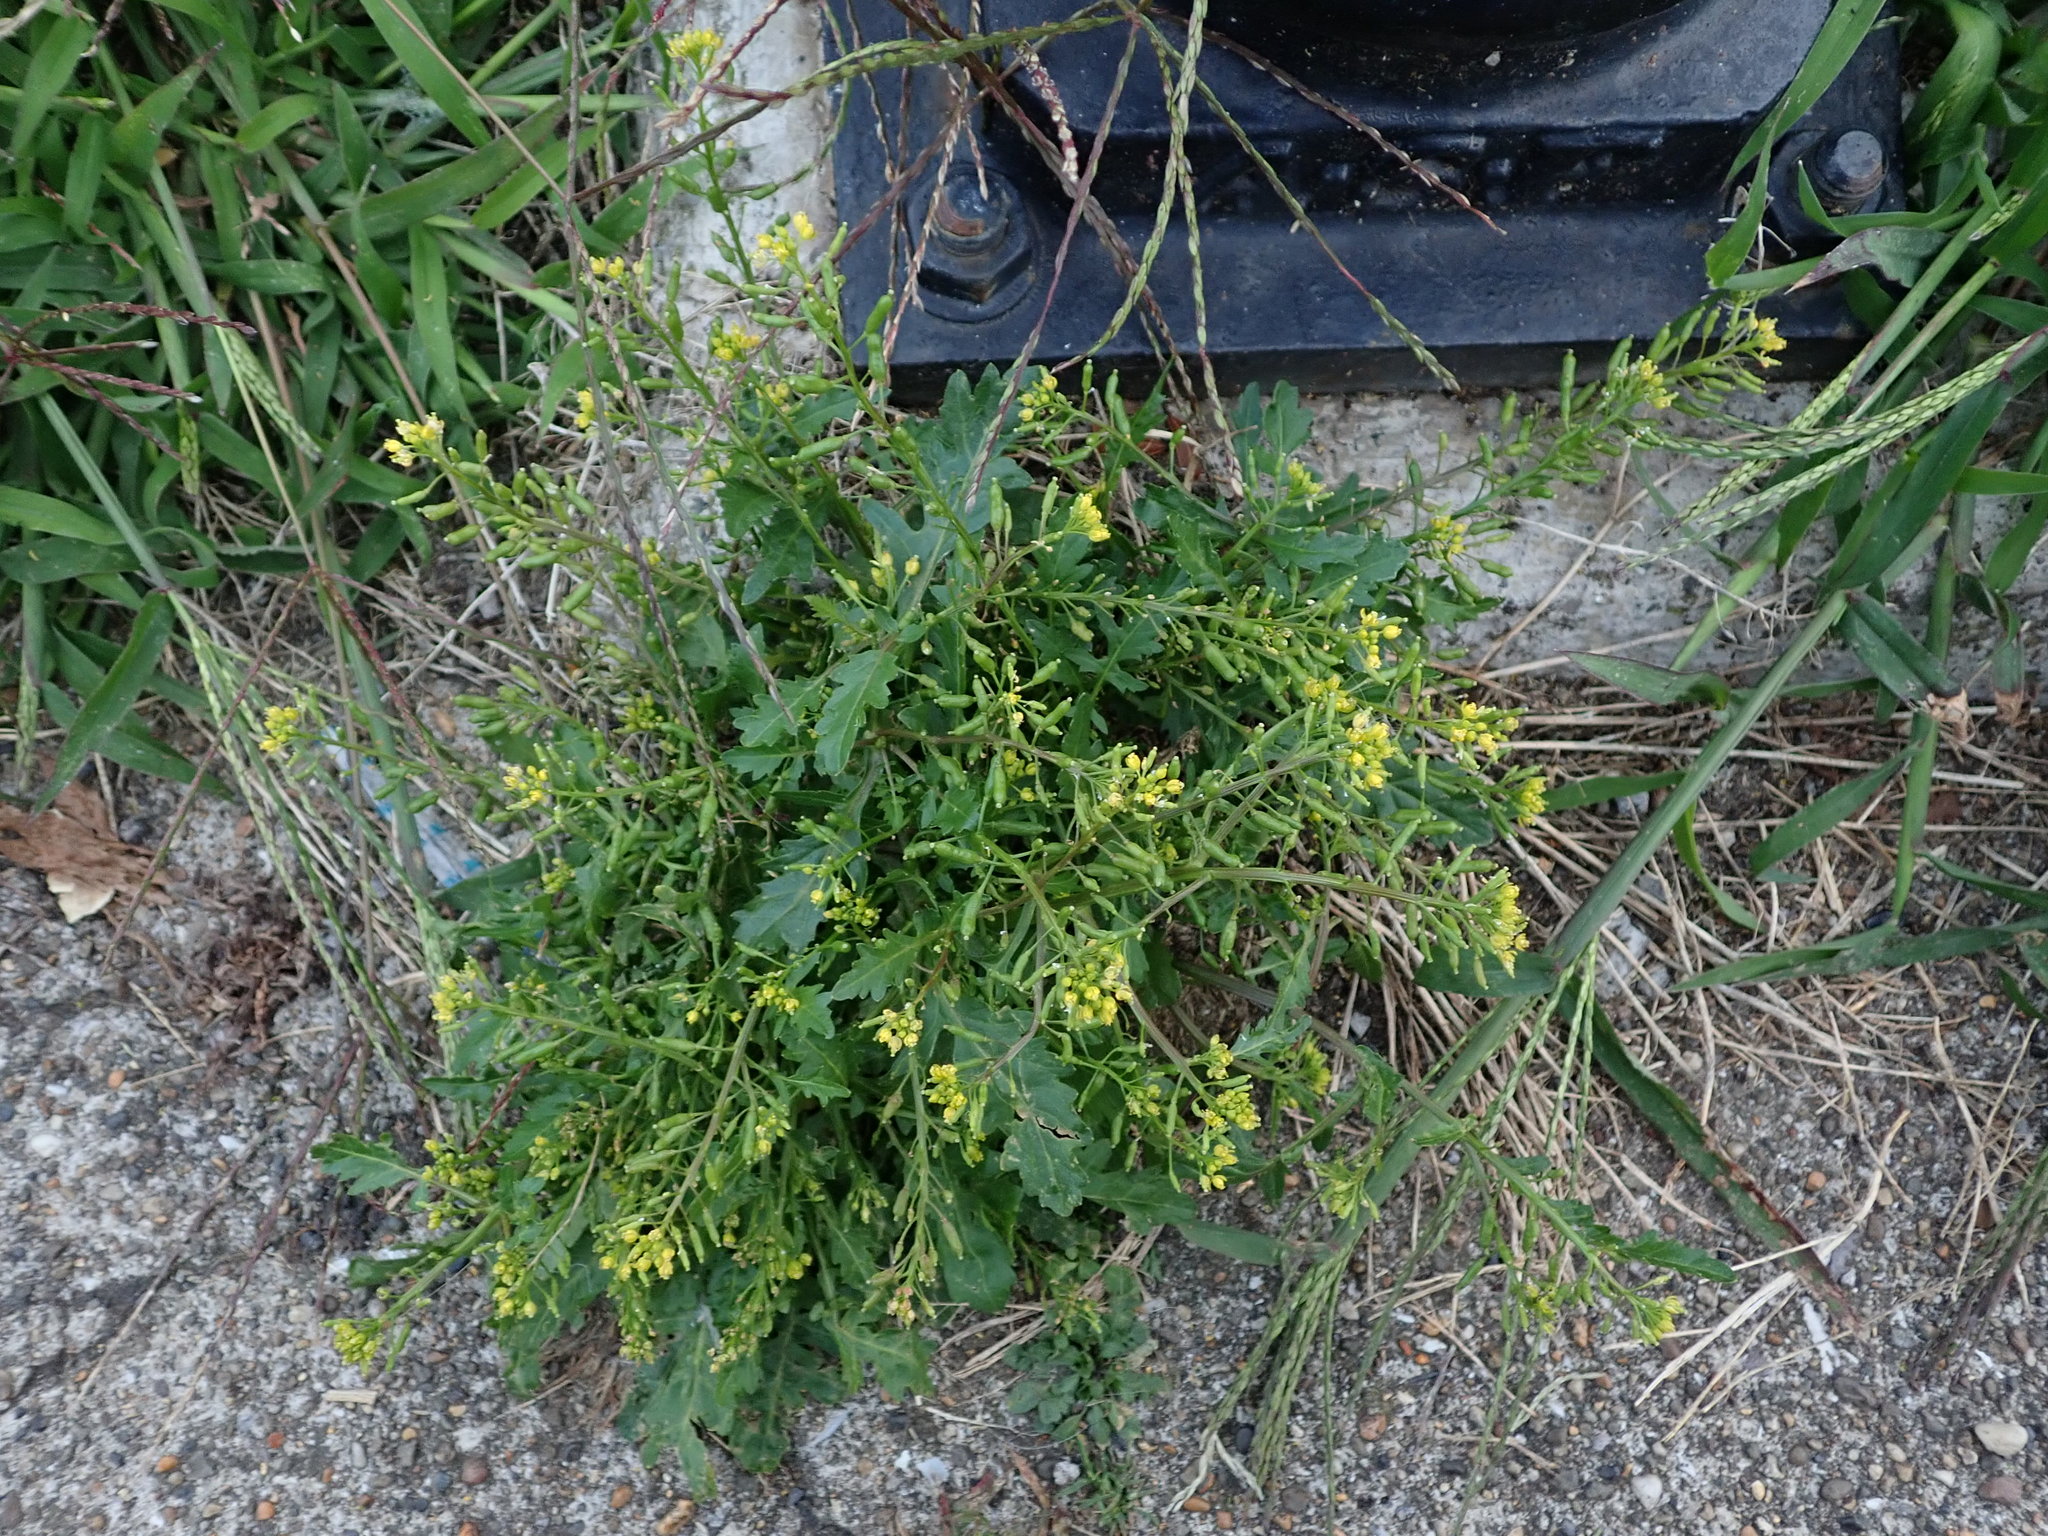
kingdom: Plantae
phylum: Tracheophyta
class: Magnoliopsida
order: Brassicales
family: Brassicaceae
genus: Rorippa
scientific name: Rorippa palustris
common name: Marsh yellow-cress
